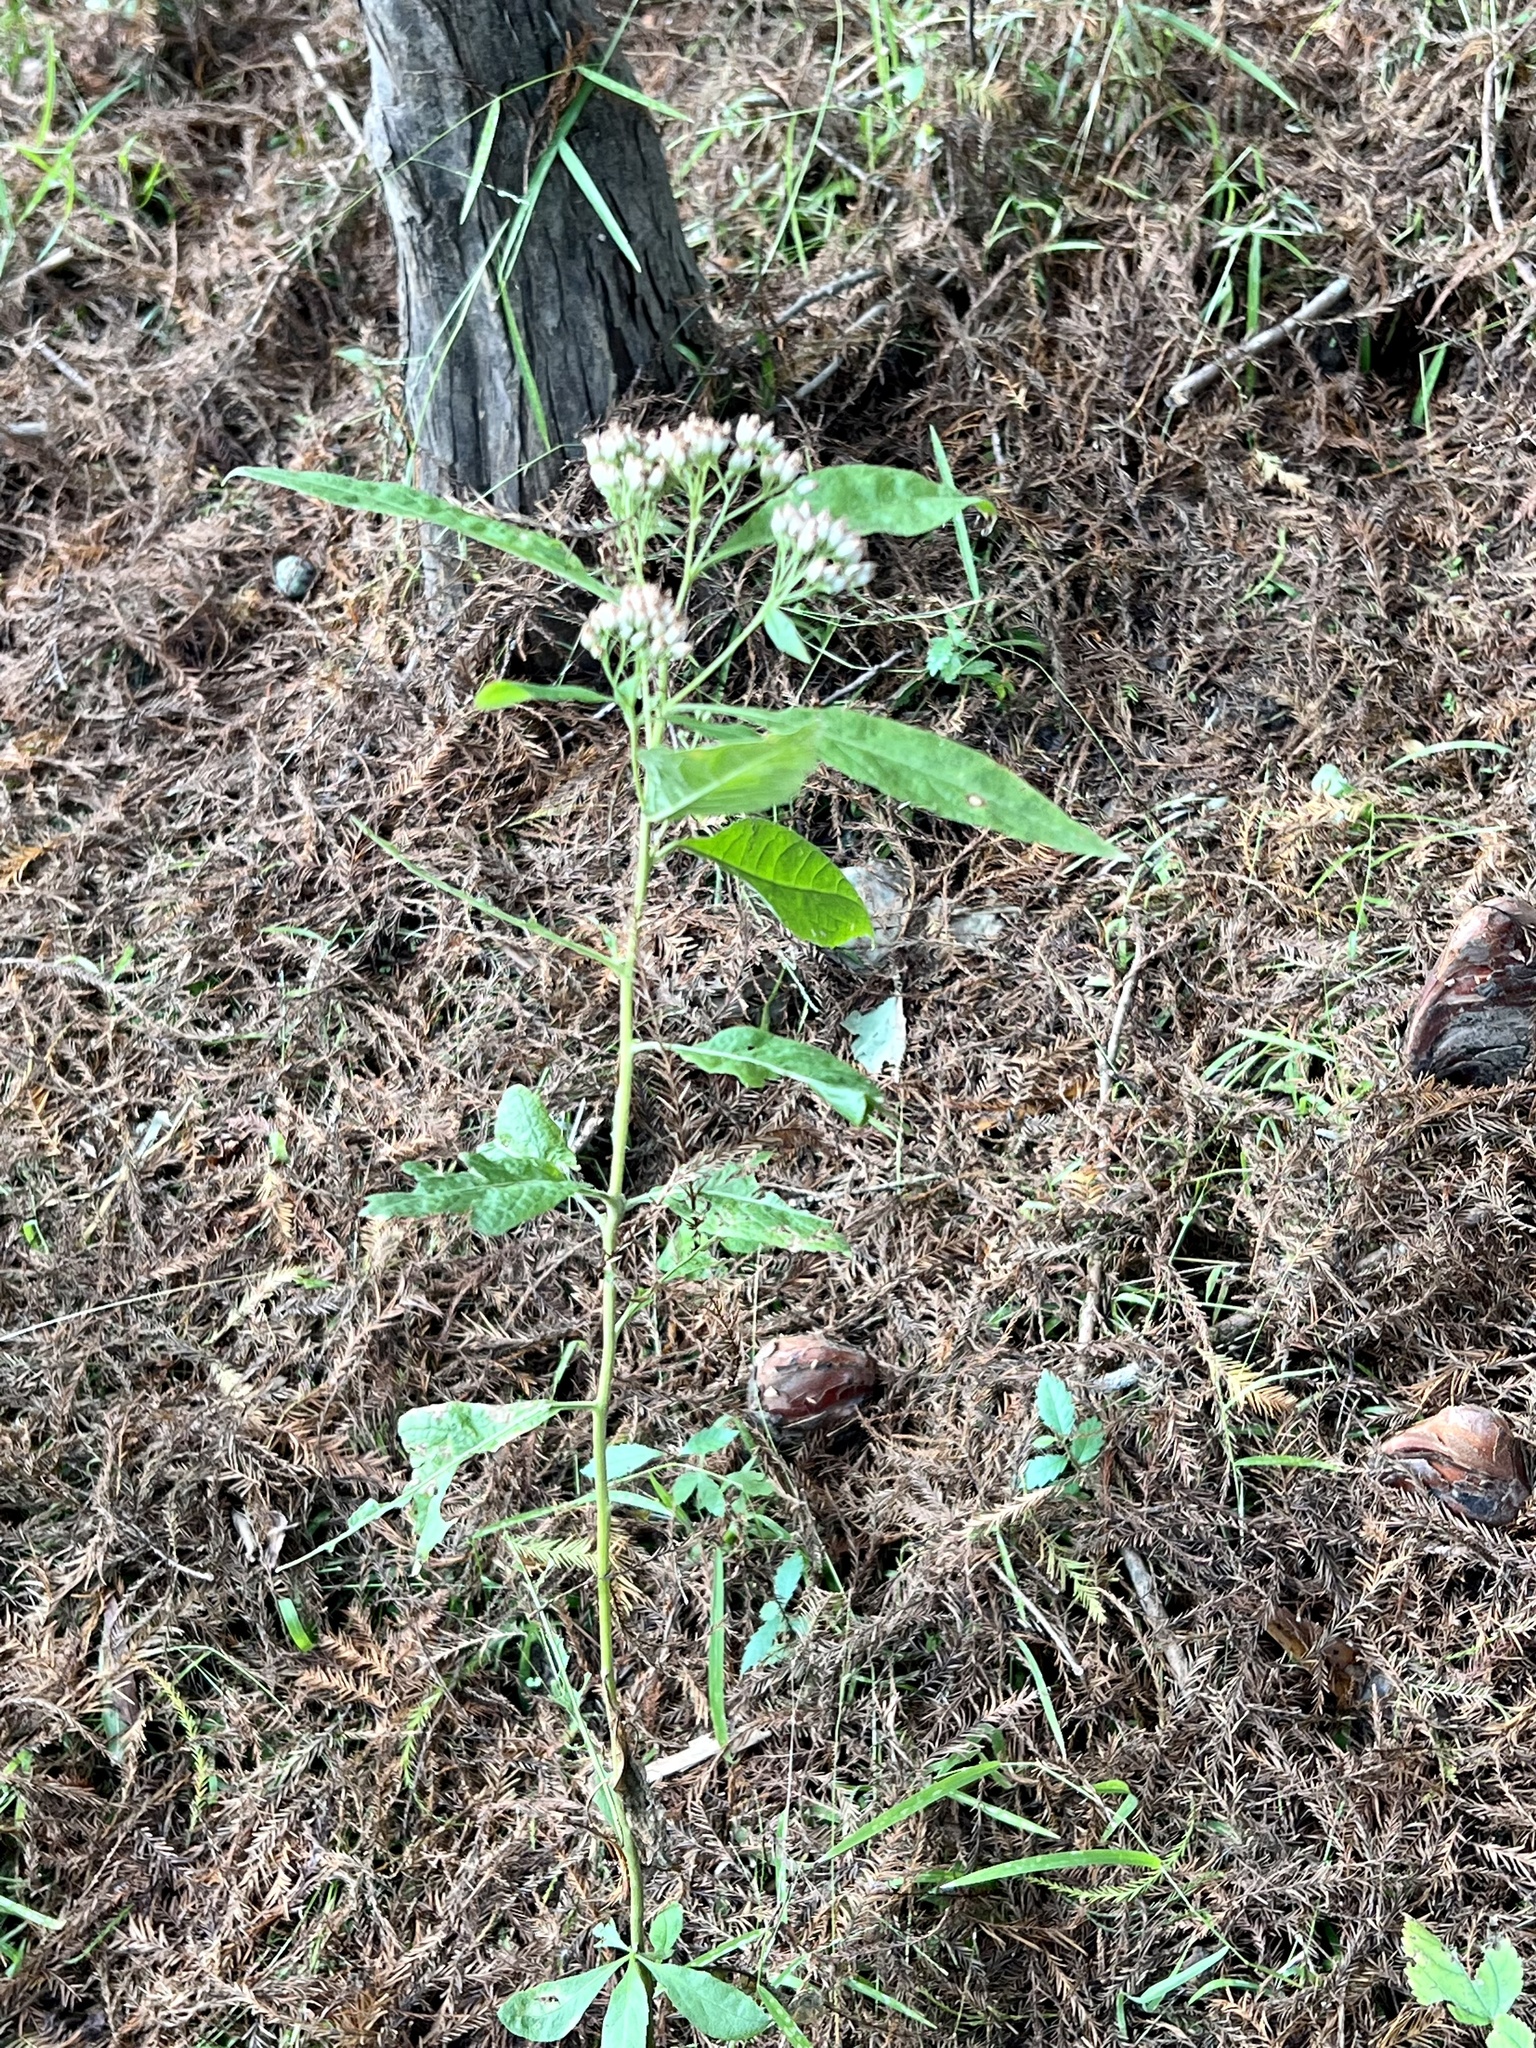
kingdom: Plantae
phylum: Tracheophyta
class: Magnoliopsida
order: Asterales
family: Asteraceae
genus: Pluchea
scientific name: Pluchea camphorata
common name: Camphor pluchea
